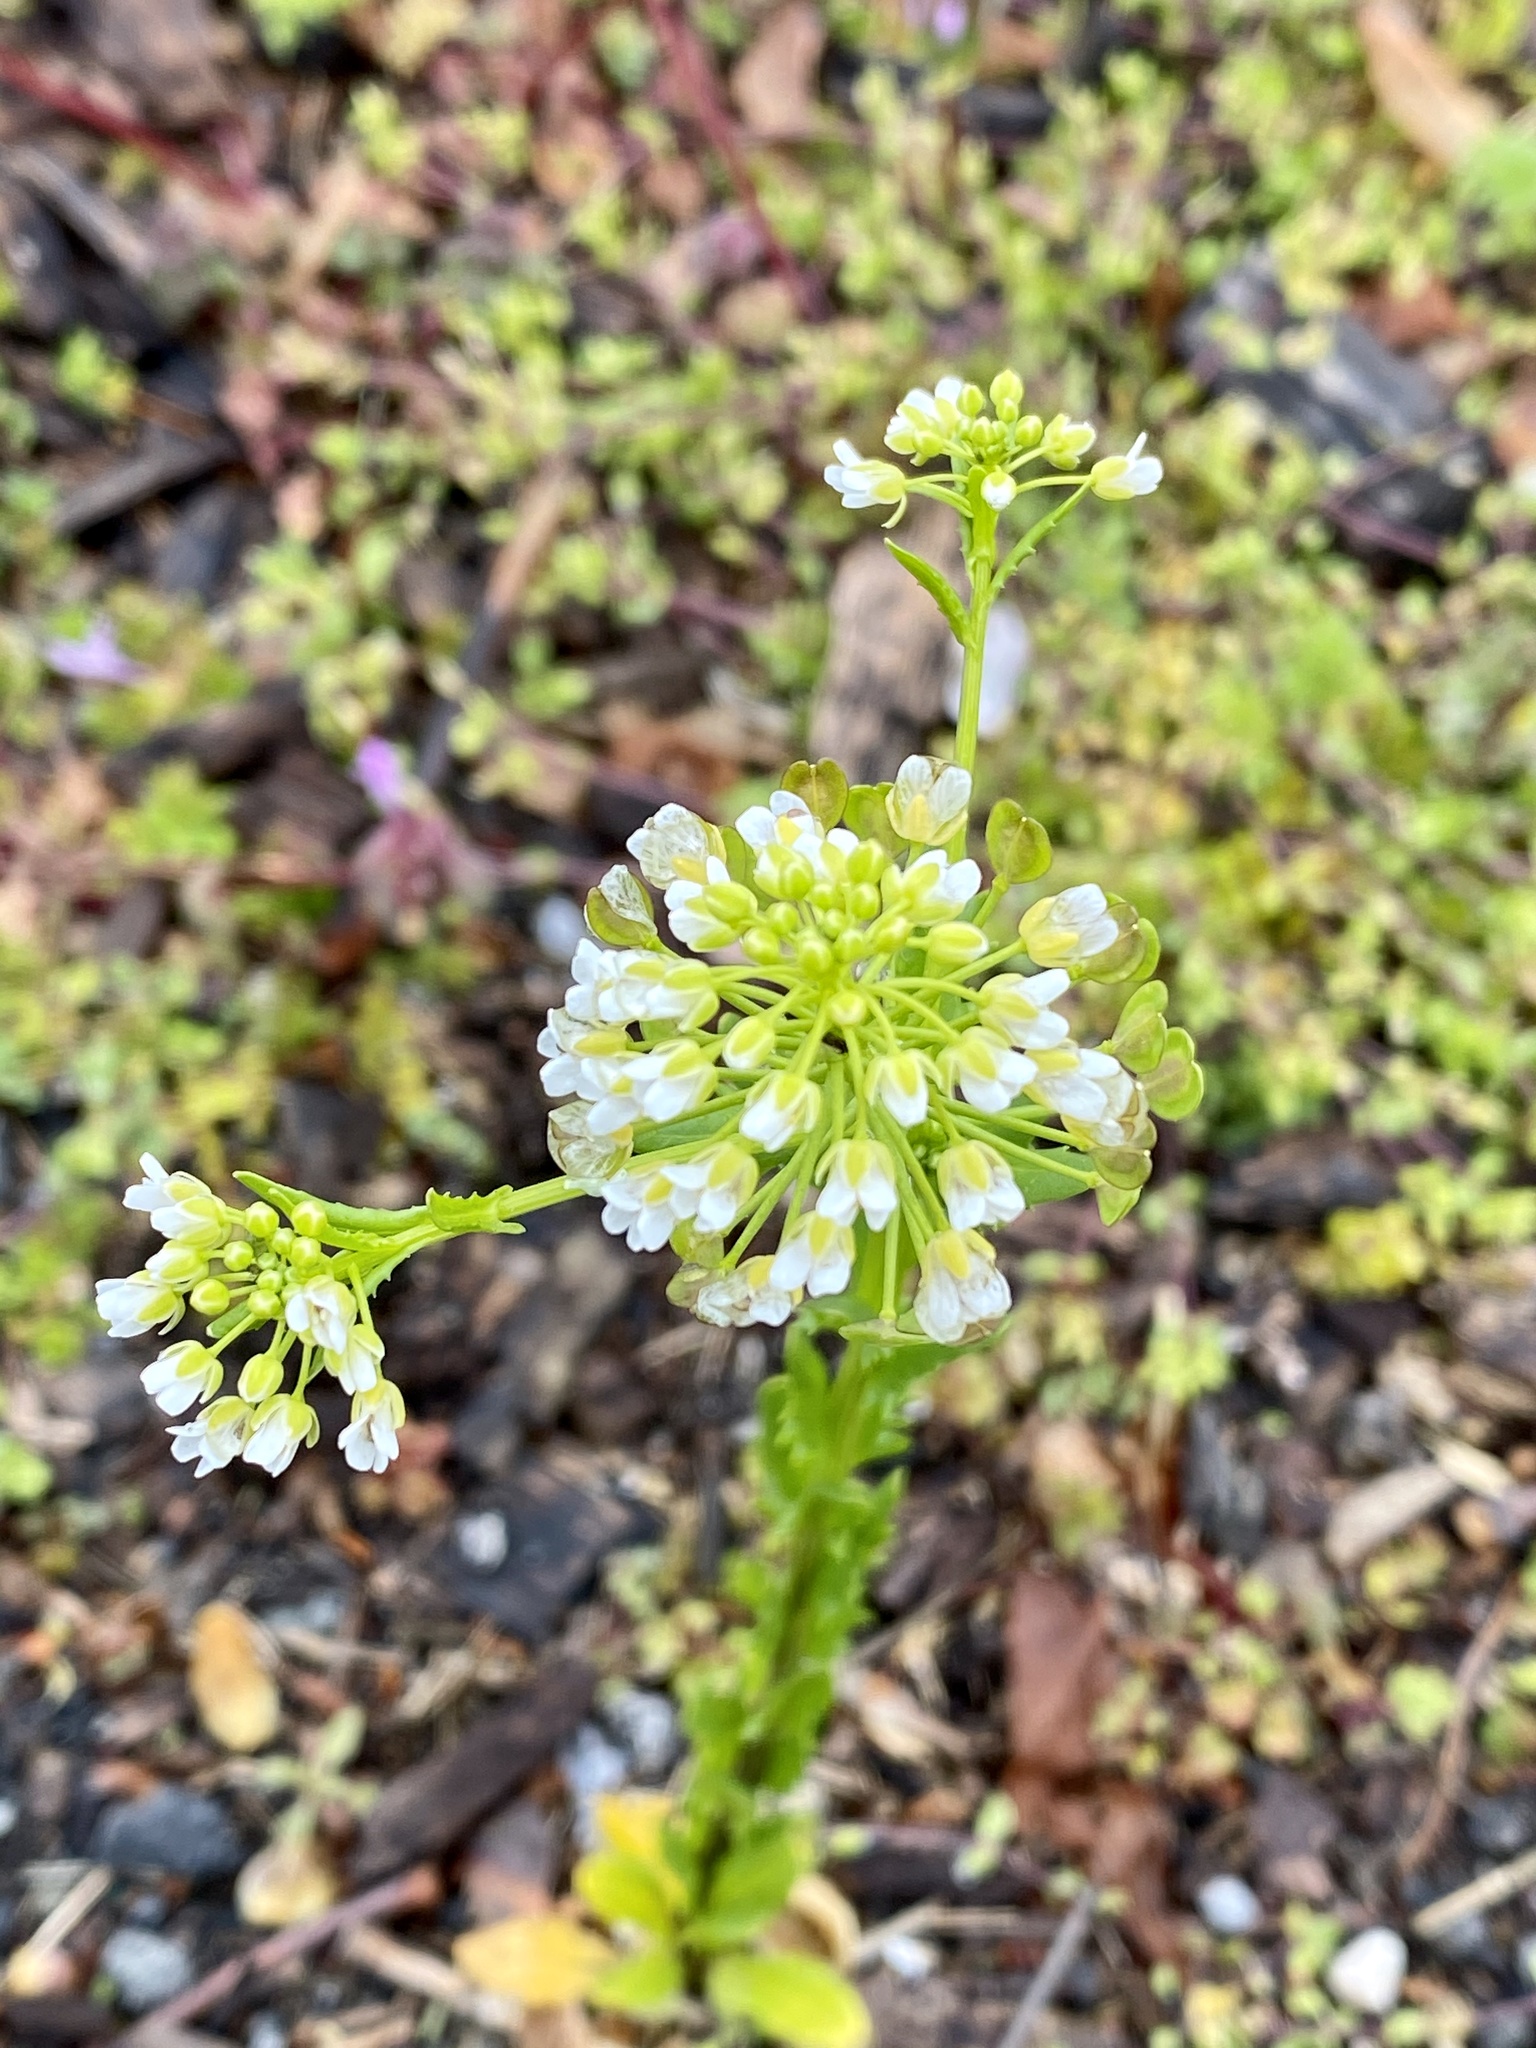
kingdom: Plantae
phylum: Tracheophyta
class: Magnoliopsida
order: Brassicales
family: Brassicaceae
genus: Thlaspi
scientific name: Thlaspi arvense
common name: Field pennycress
